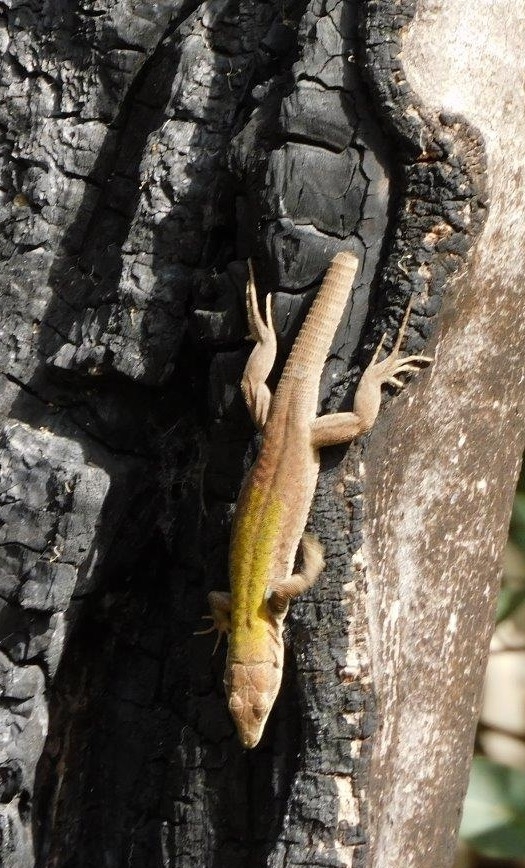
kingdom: Animalia
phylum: Chordata
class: Squamata
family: Lacertidae
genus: Podarcis
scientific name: Podarcis siculus
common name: Italian wall lizard
